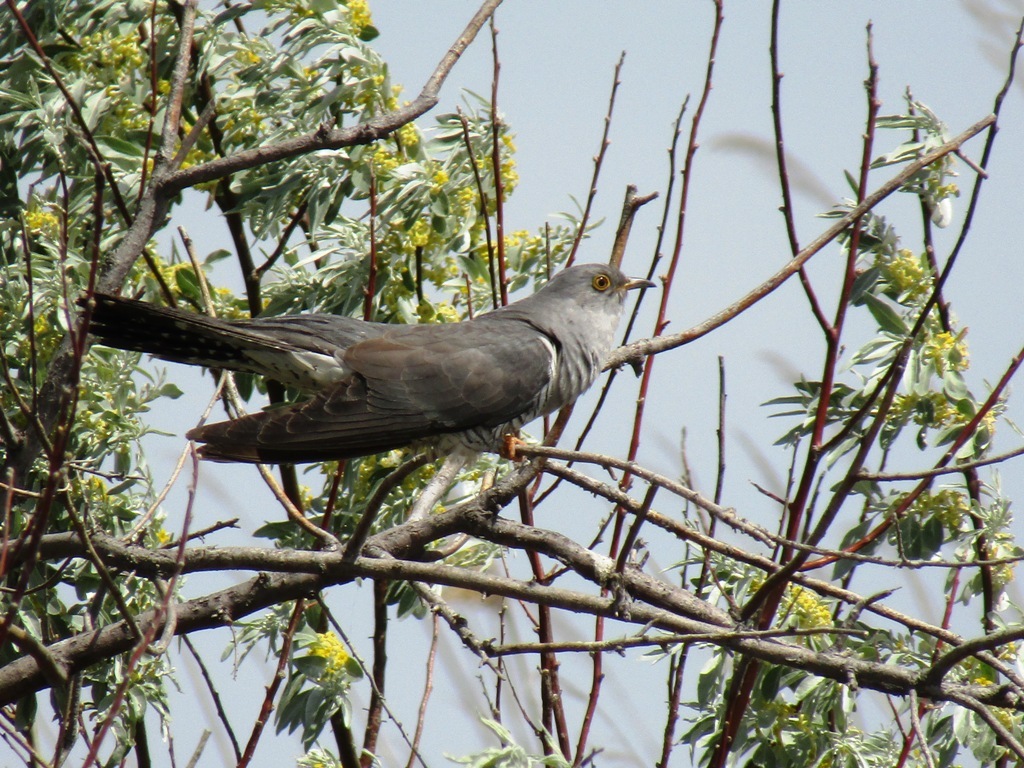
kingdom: Animalia
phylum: Chordata
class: Aves
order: Cuculiformes
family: Cuculidae
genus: Cuculus
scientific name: Cuculus canorus
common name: Common cuckoo
